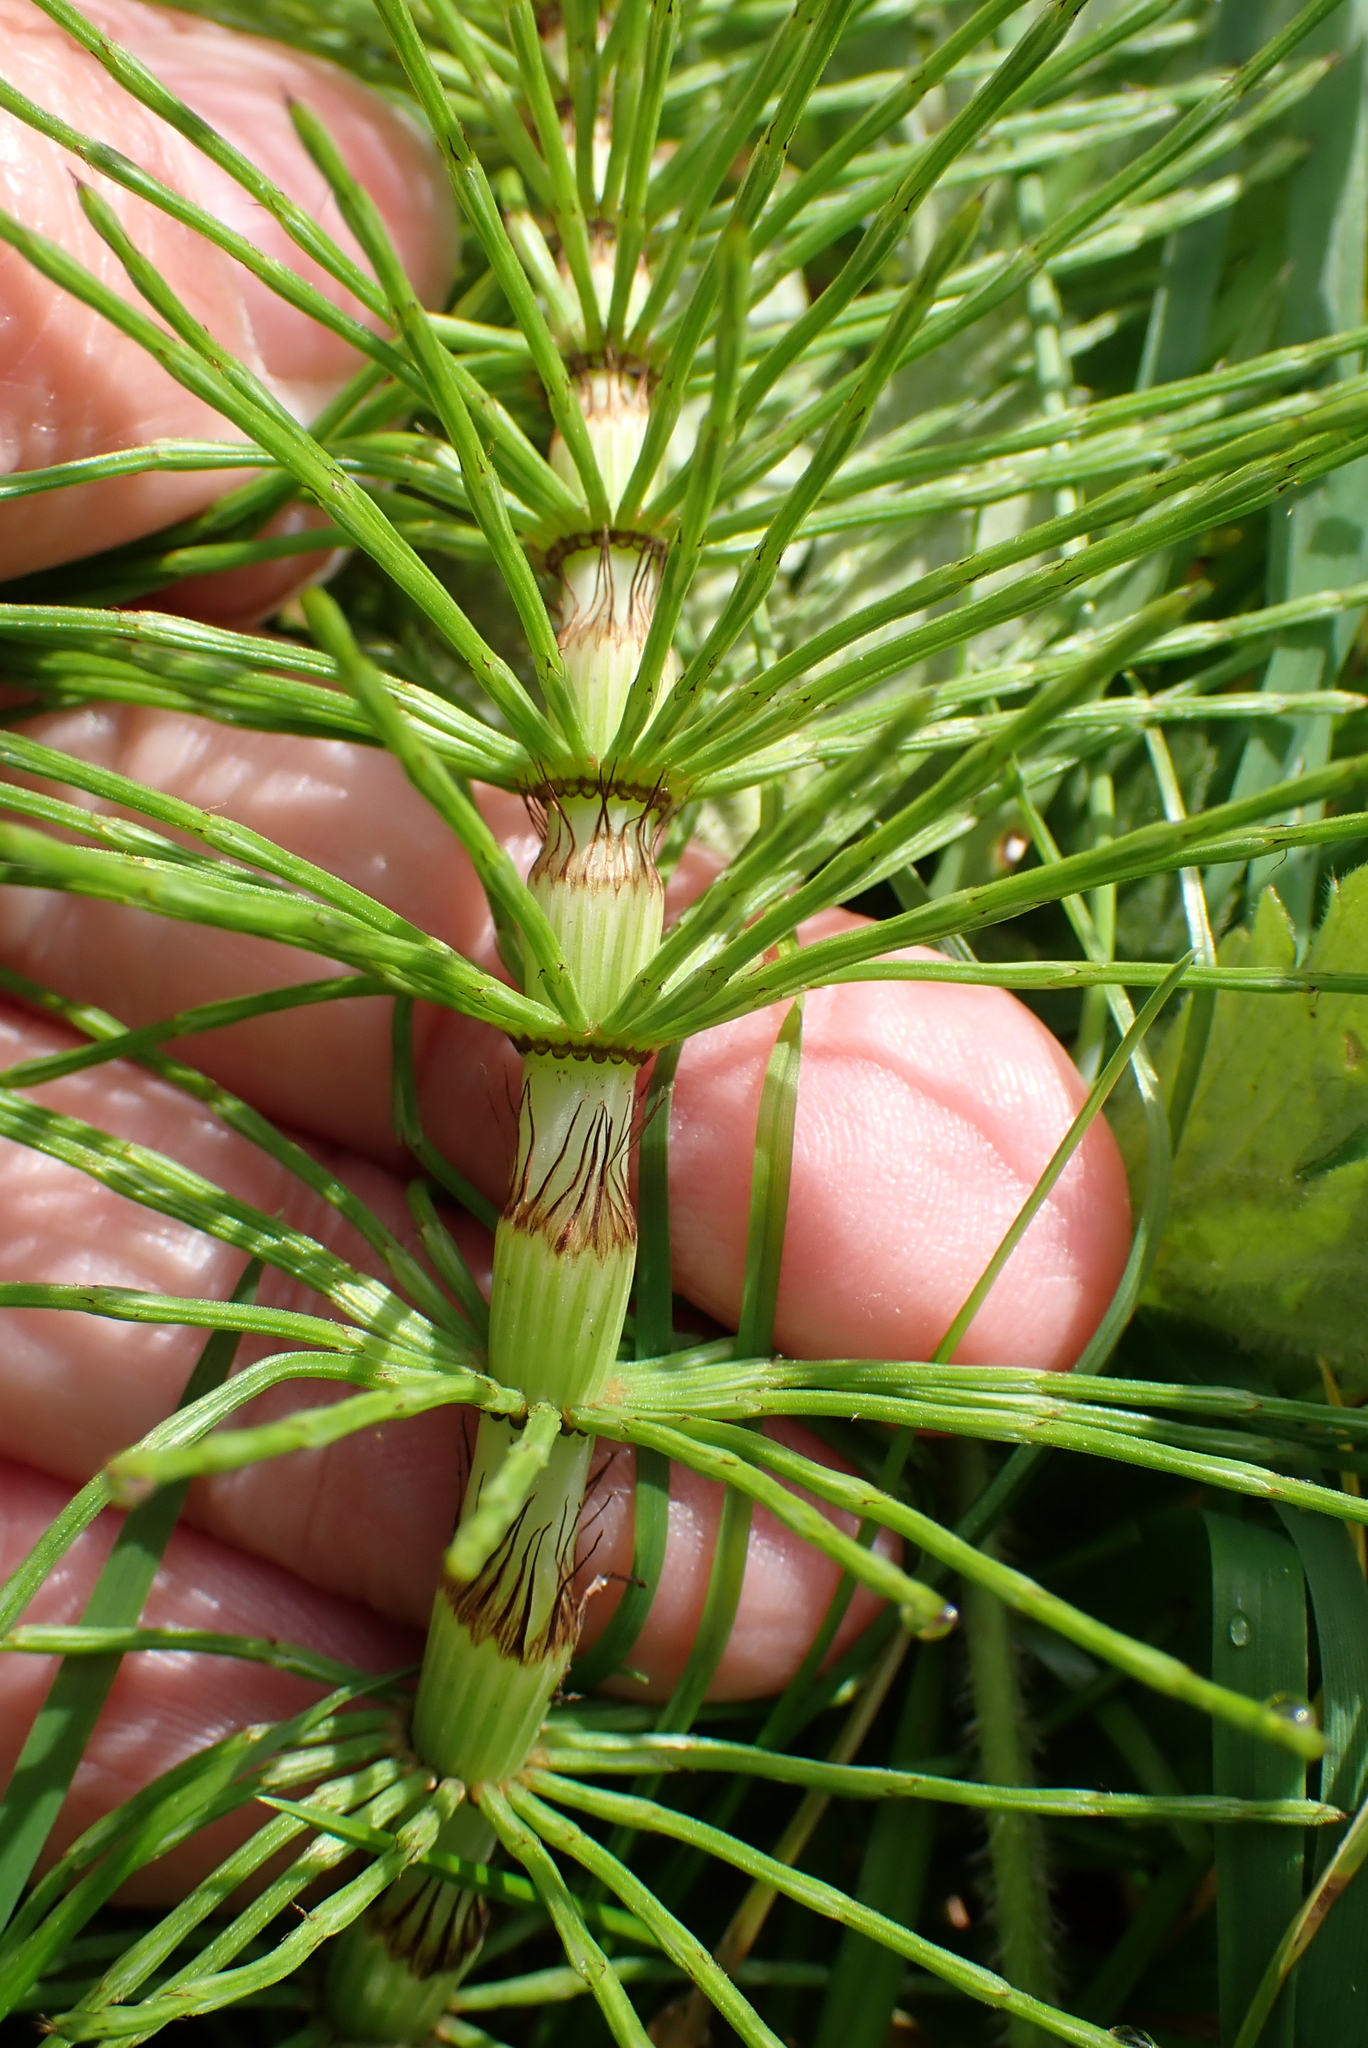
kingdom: Plantae
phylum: Tracheophyta
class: Polypodiopsida
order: Equisetales
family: Equisetaceae
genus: Equisetum
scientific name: Equisetum telmateia
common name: Great horsetail
